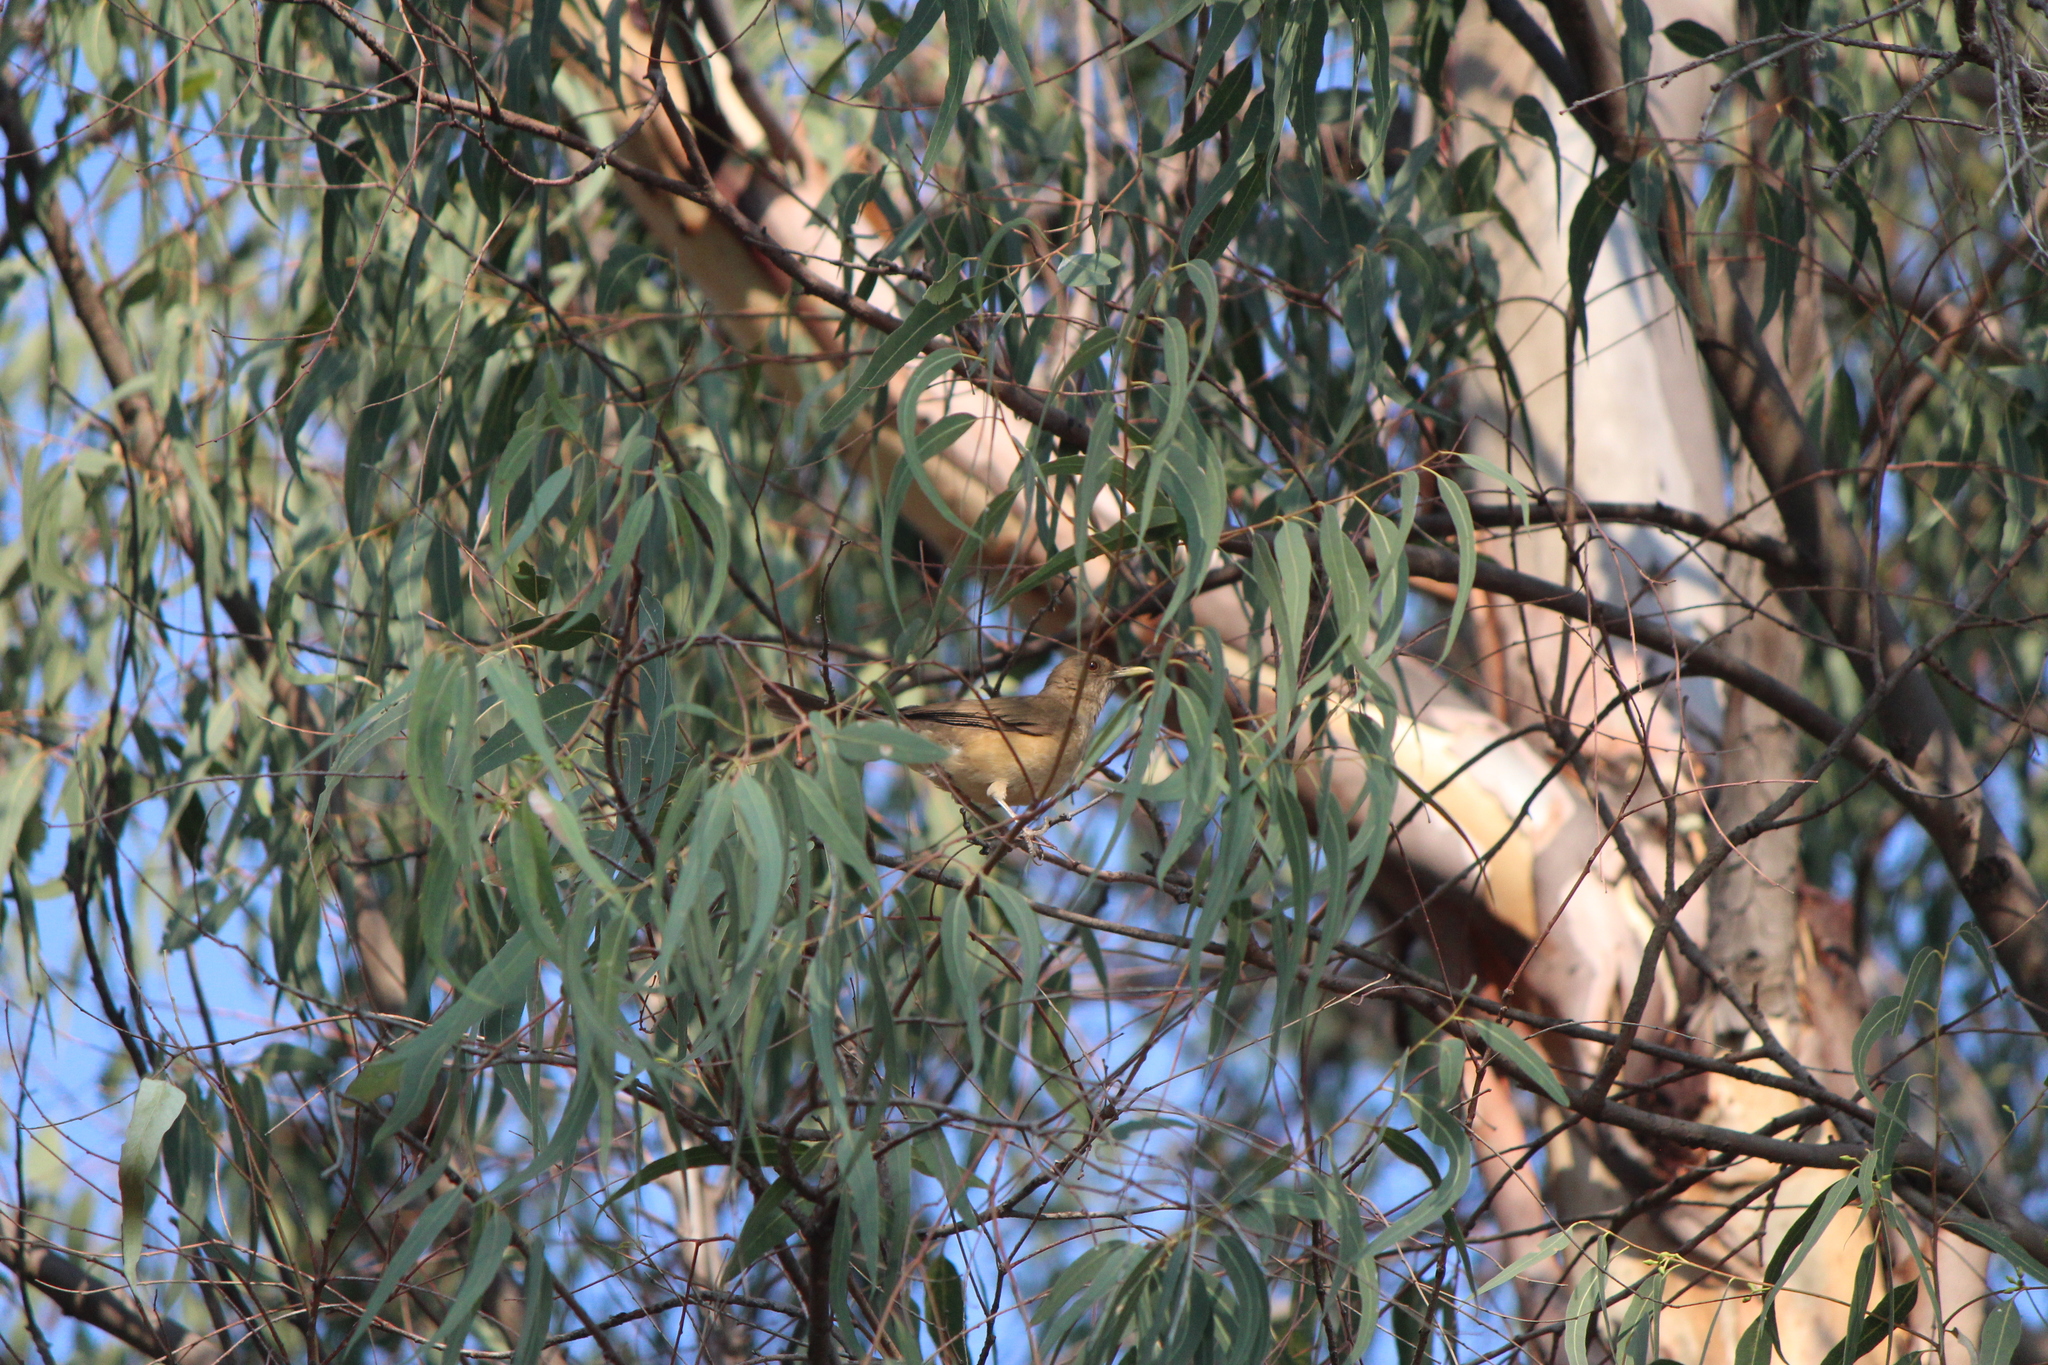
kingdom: Animalia
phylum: Chordata
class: Aves
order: Passeriformes
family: Turdidae
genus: Turdus
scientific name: Turdus grayi
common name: Clay-colored thrush
